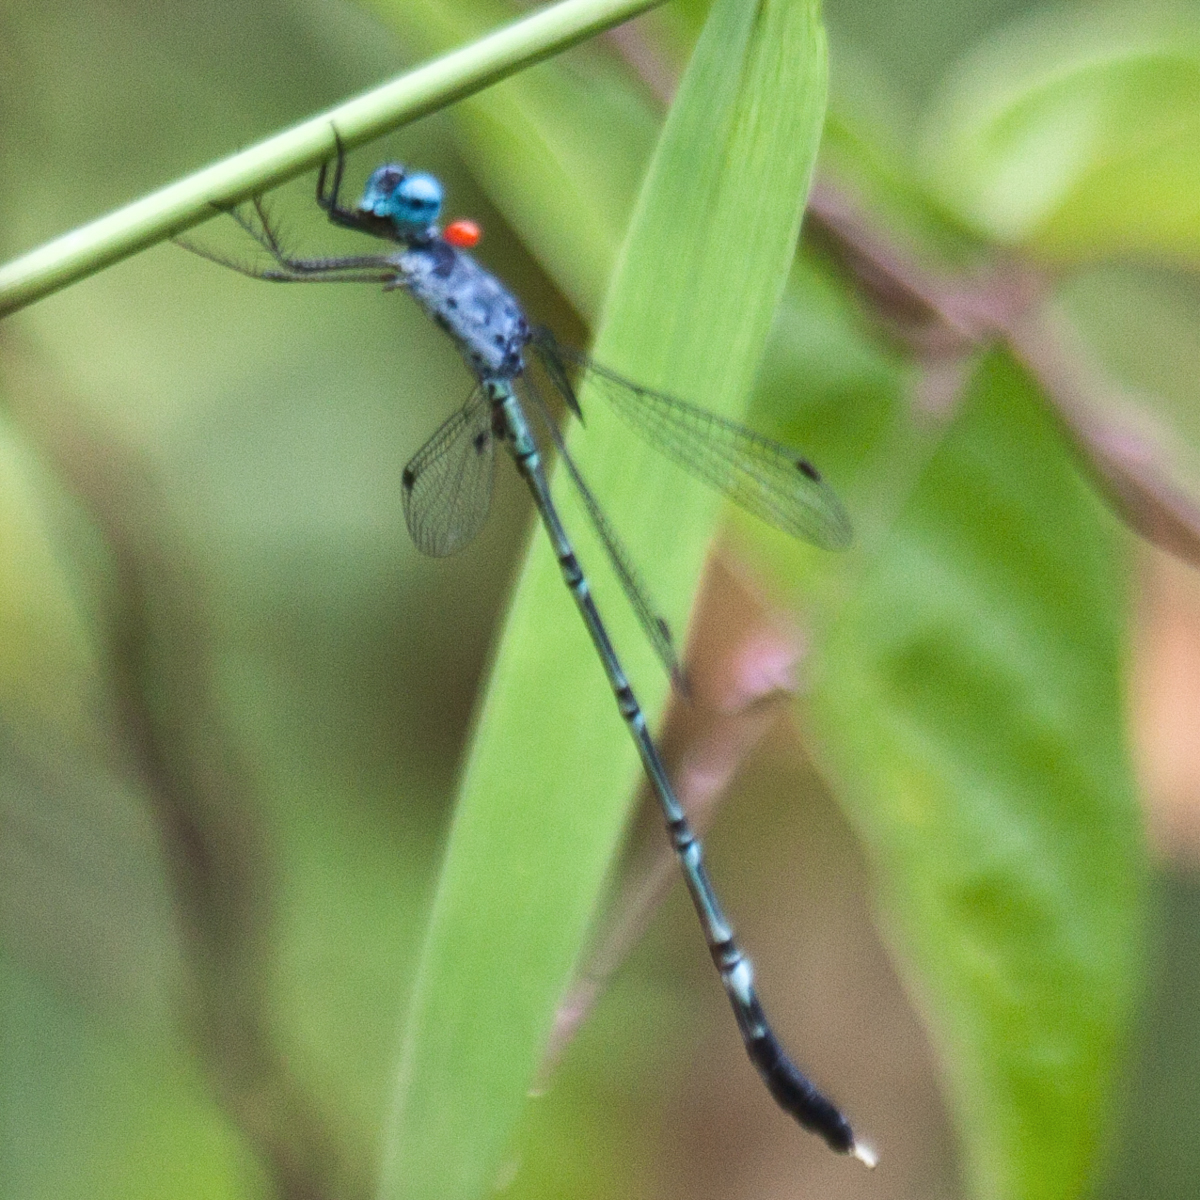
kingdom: Animalia
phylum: Arthropoda
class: Insecta
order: Odonata
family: Lestidae
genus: Lestes
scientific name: Lestes praemorsus
